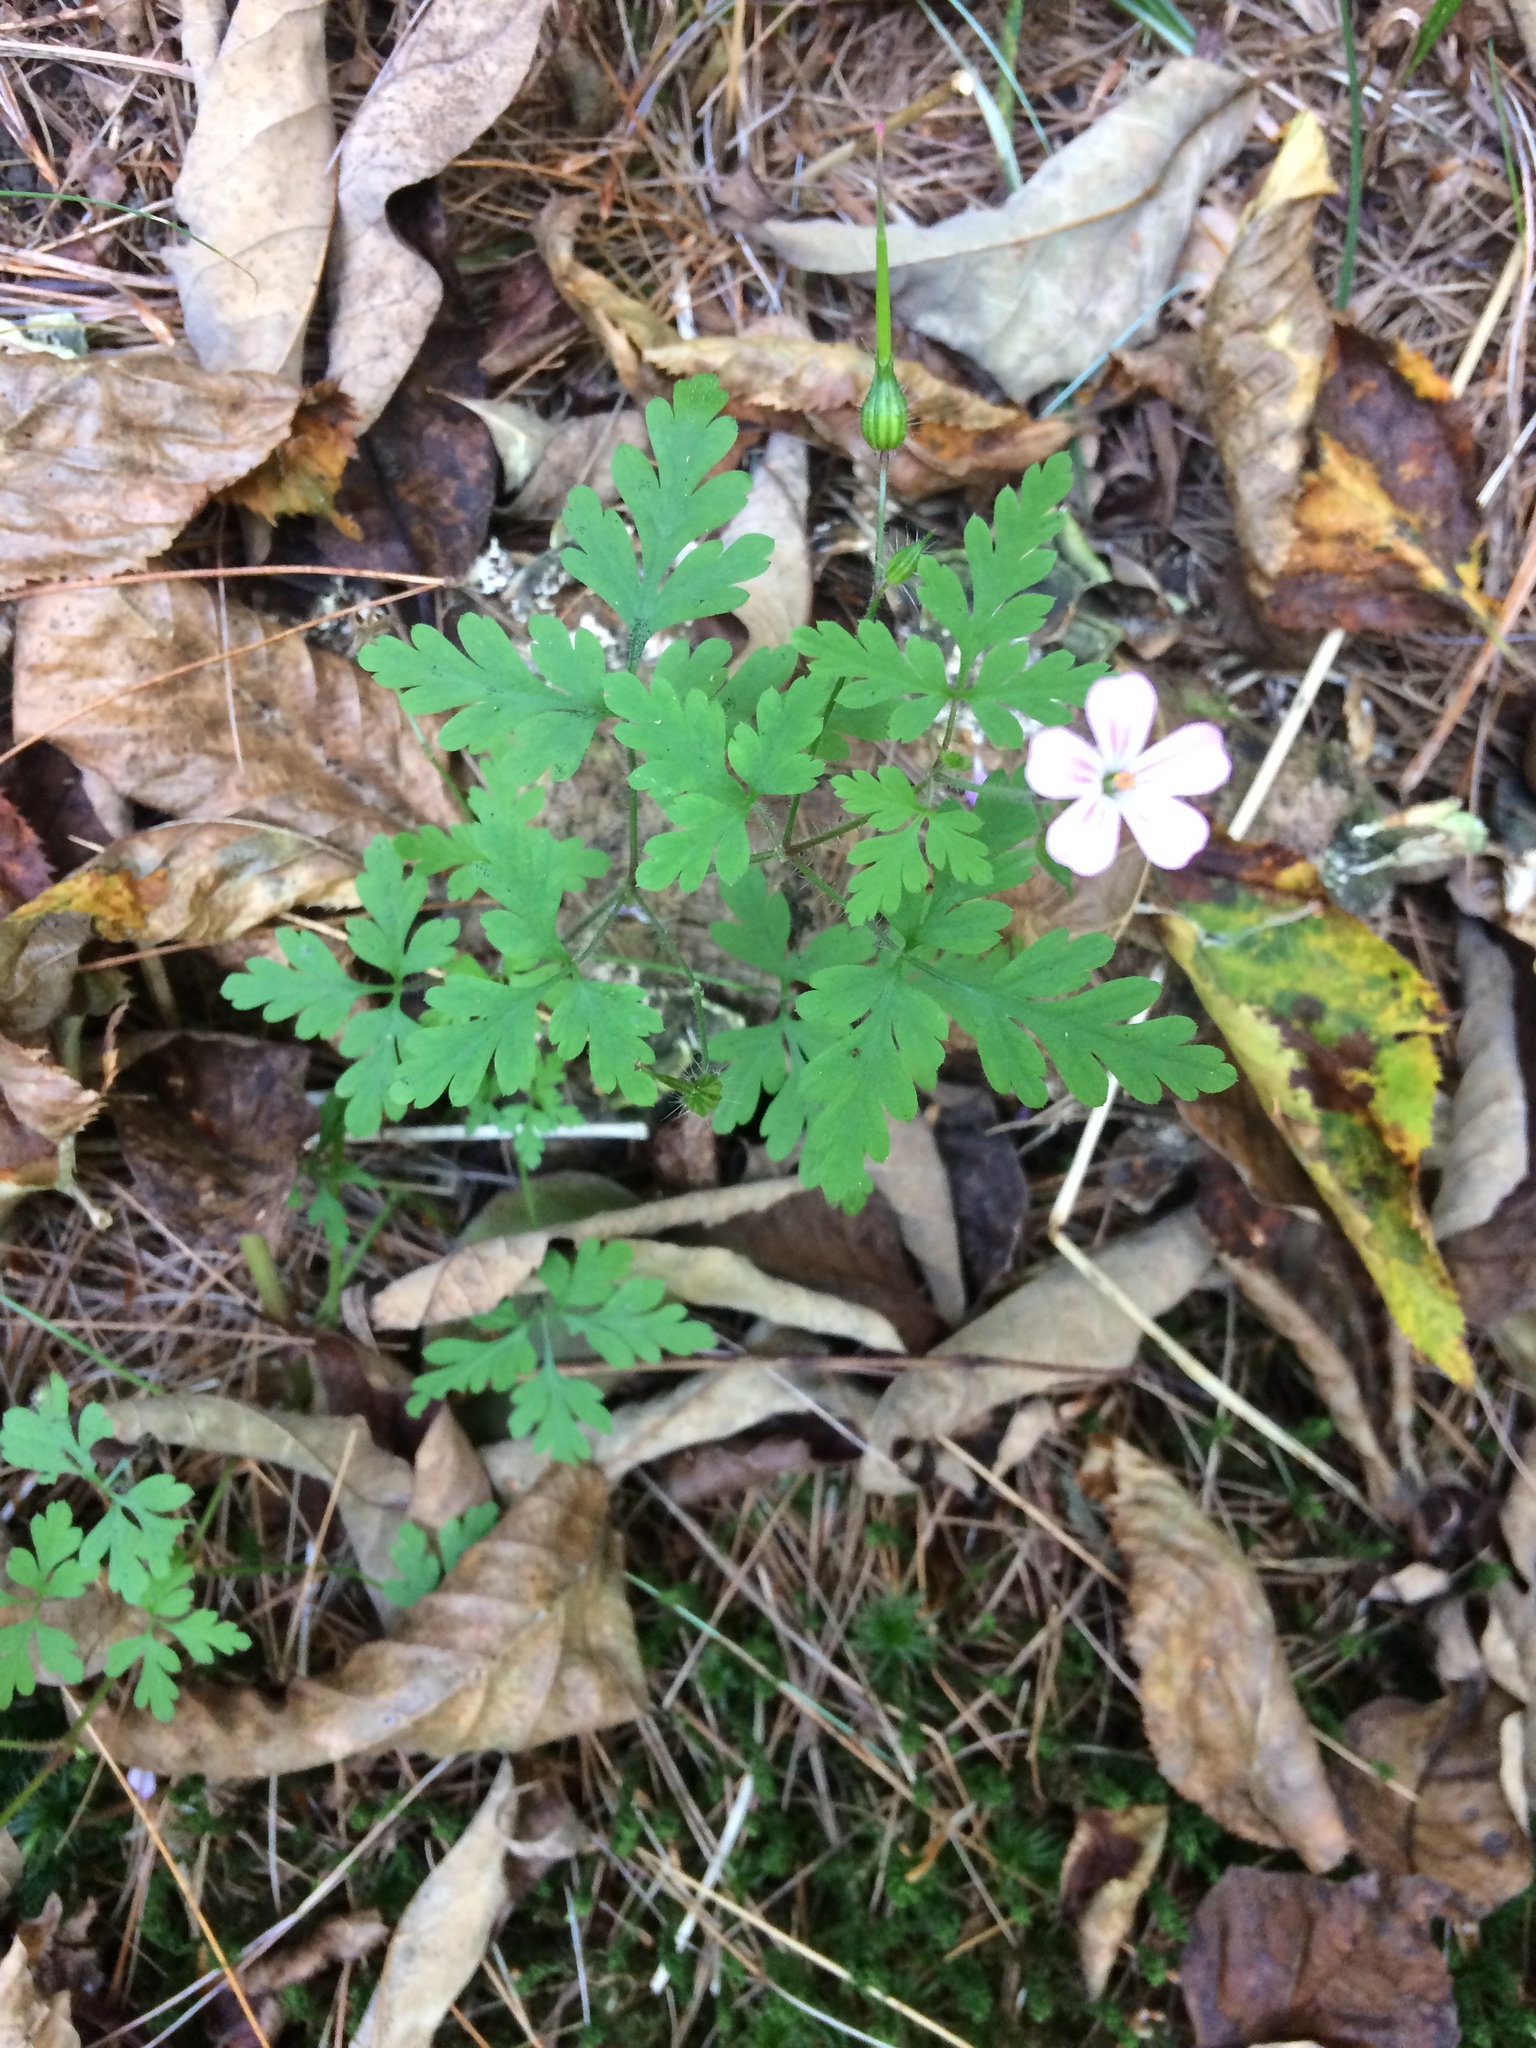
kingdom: Plantae
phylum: Tracheophyta
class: Magnoliopsida
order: Geraniales
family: Geraniaceae
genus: Geranium
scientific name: Geranium robertianum
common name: Herb-robert
